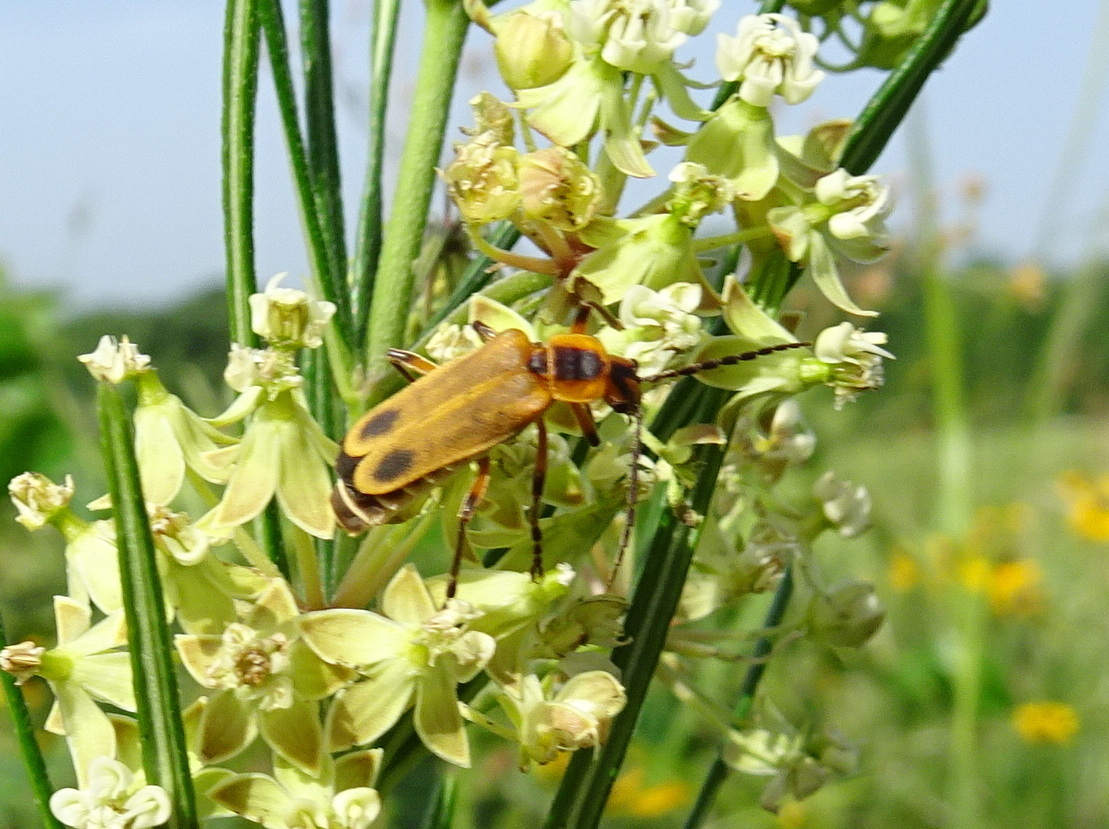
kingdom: Animalia
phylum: Arthropoda
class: Insecta
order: Coleoptera
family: Cantharidae
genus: Chauliognathus
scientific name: Chauliognathus marginatus
